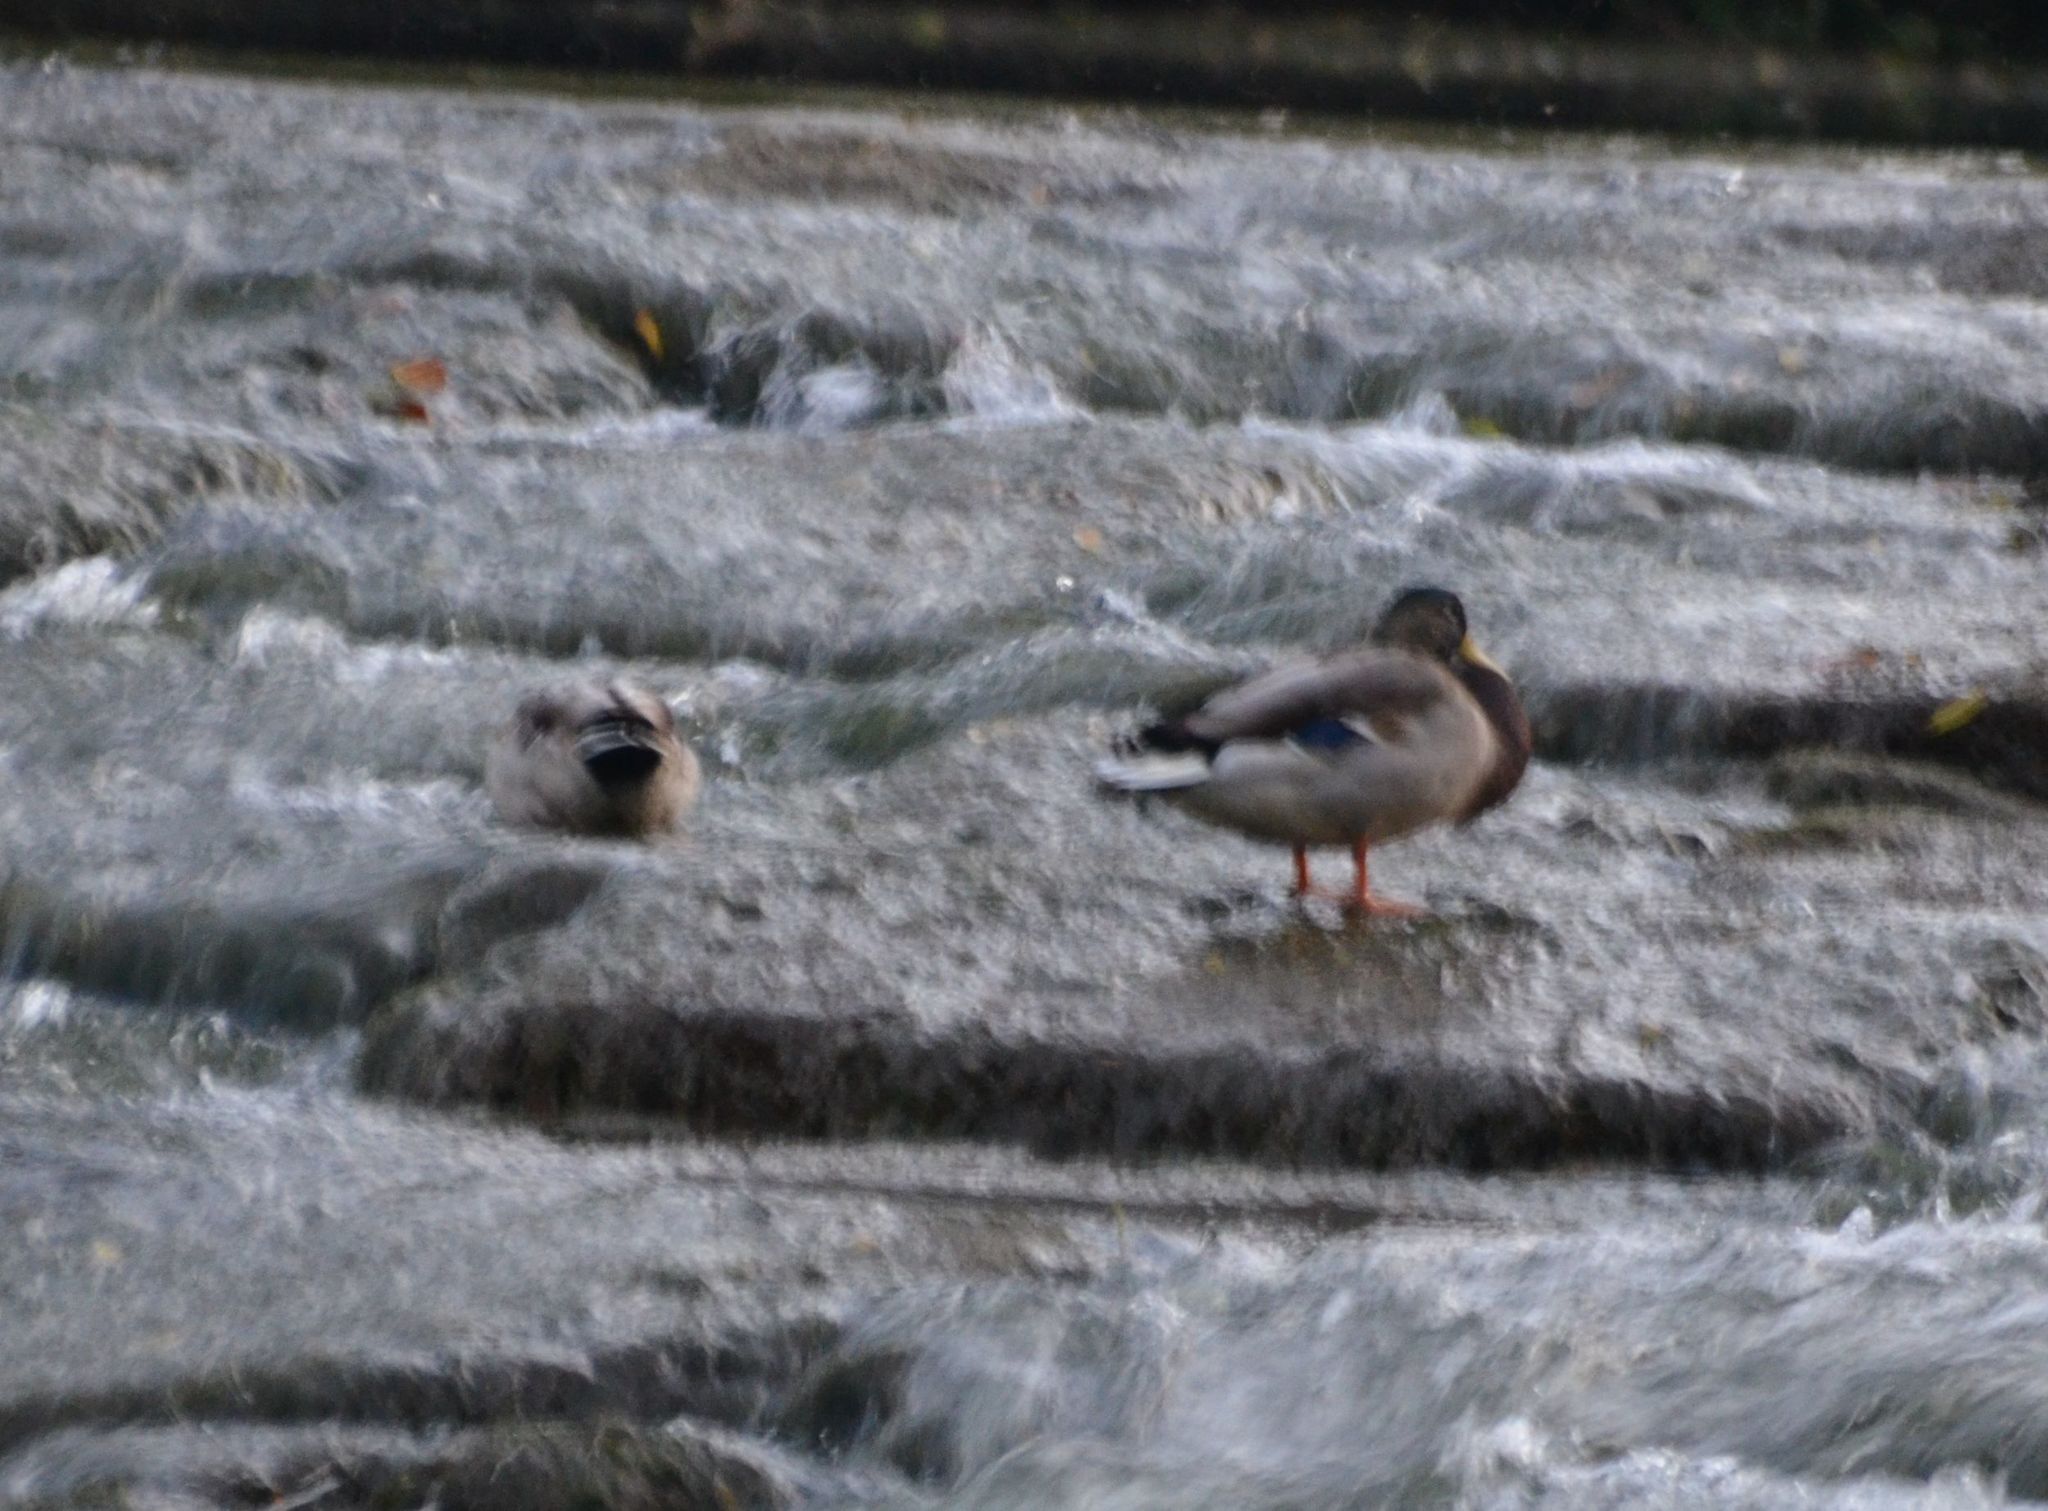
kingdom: Animalia
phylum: Chordata
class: Aves
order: Anseriformes
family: Anatidae
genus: Anas
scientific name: Anas platyrhynchos
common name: Mallard
